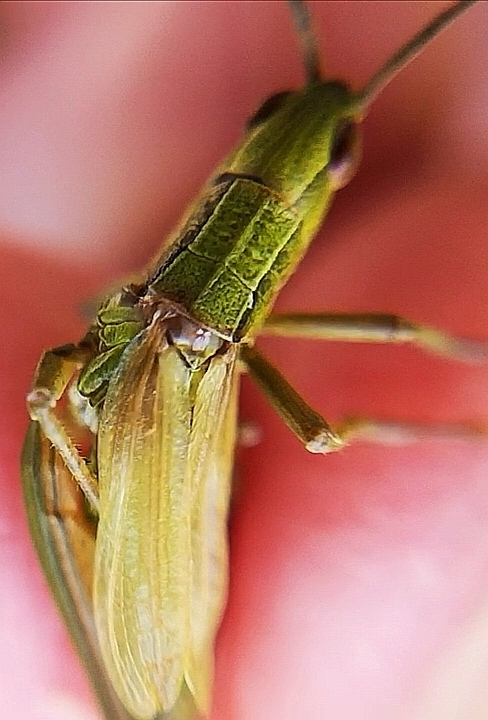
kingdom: Animalia
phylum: Arthropoda
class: Insecta
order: Orthoptera
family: Acrididae
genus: Euthystira
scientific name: Euthystira brachyptera
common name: Small gold grasshopper
